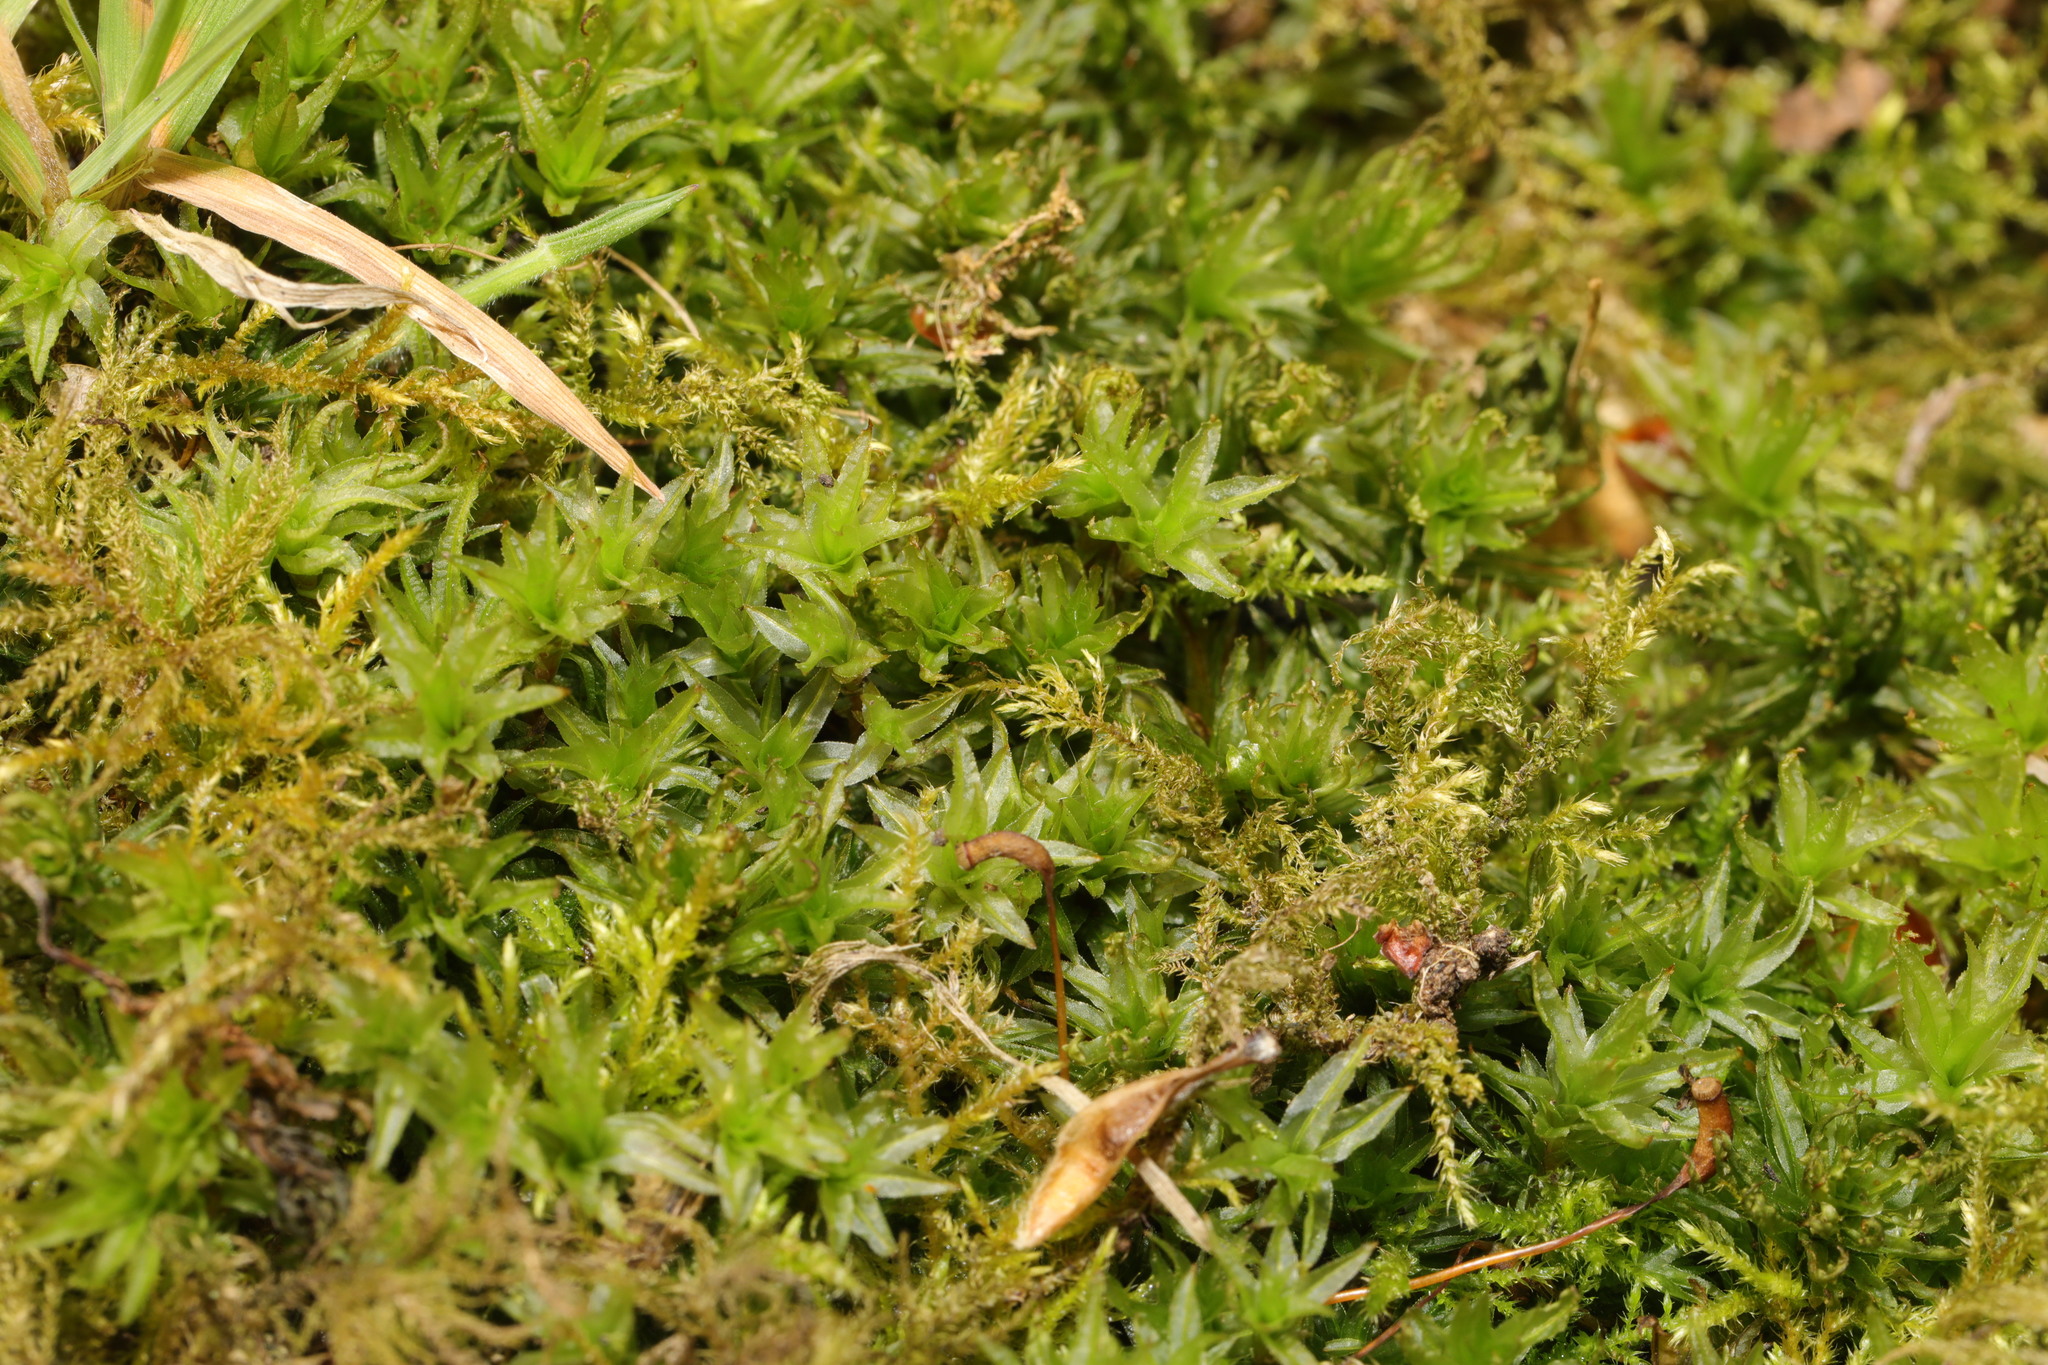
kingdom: Plantae
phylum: Bryophyta
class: Polytrichopsida
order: Polytrichales
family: Polytrichaceae
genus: Atrichum
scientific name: Atrichum undulatum
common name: Common smoothcap
